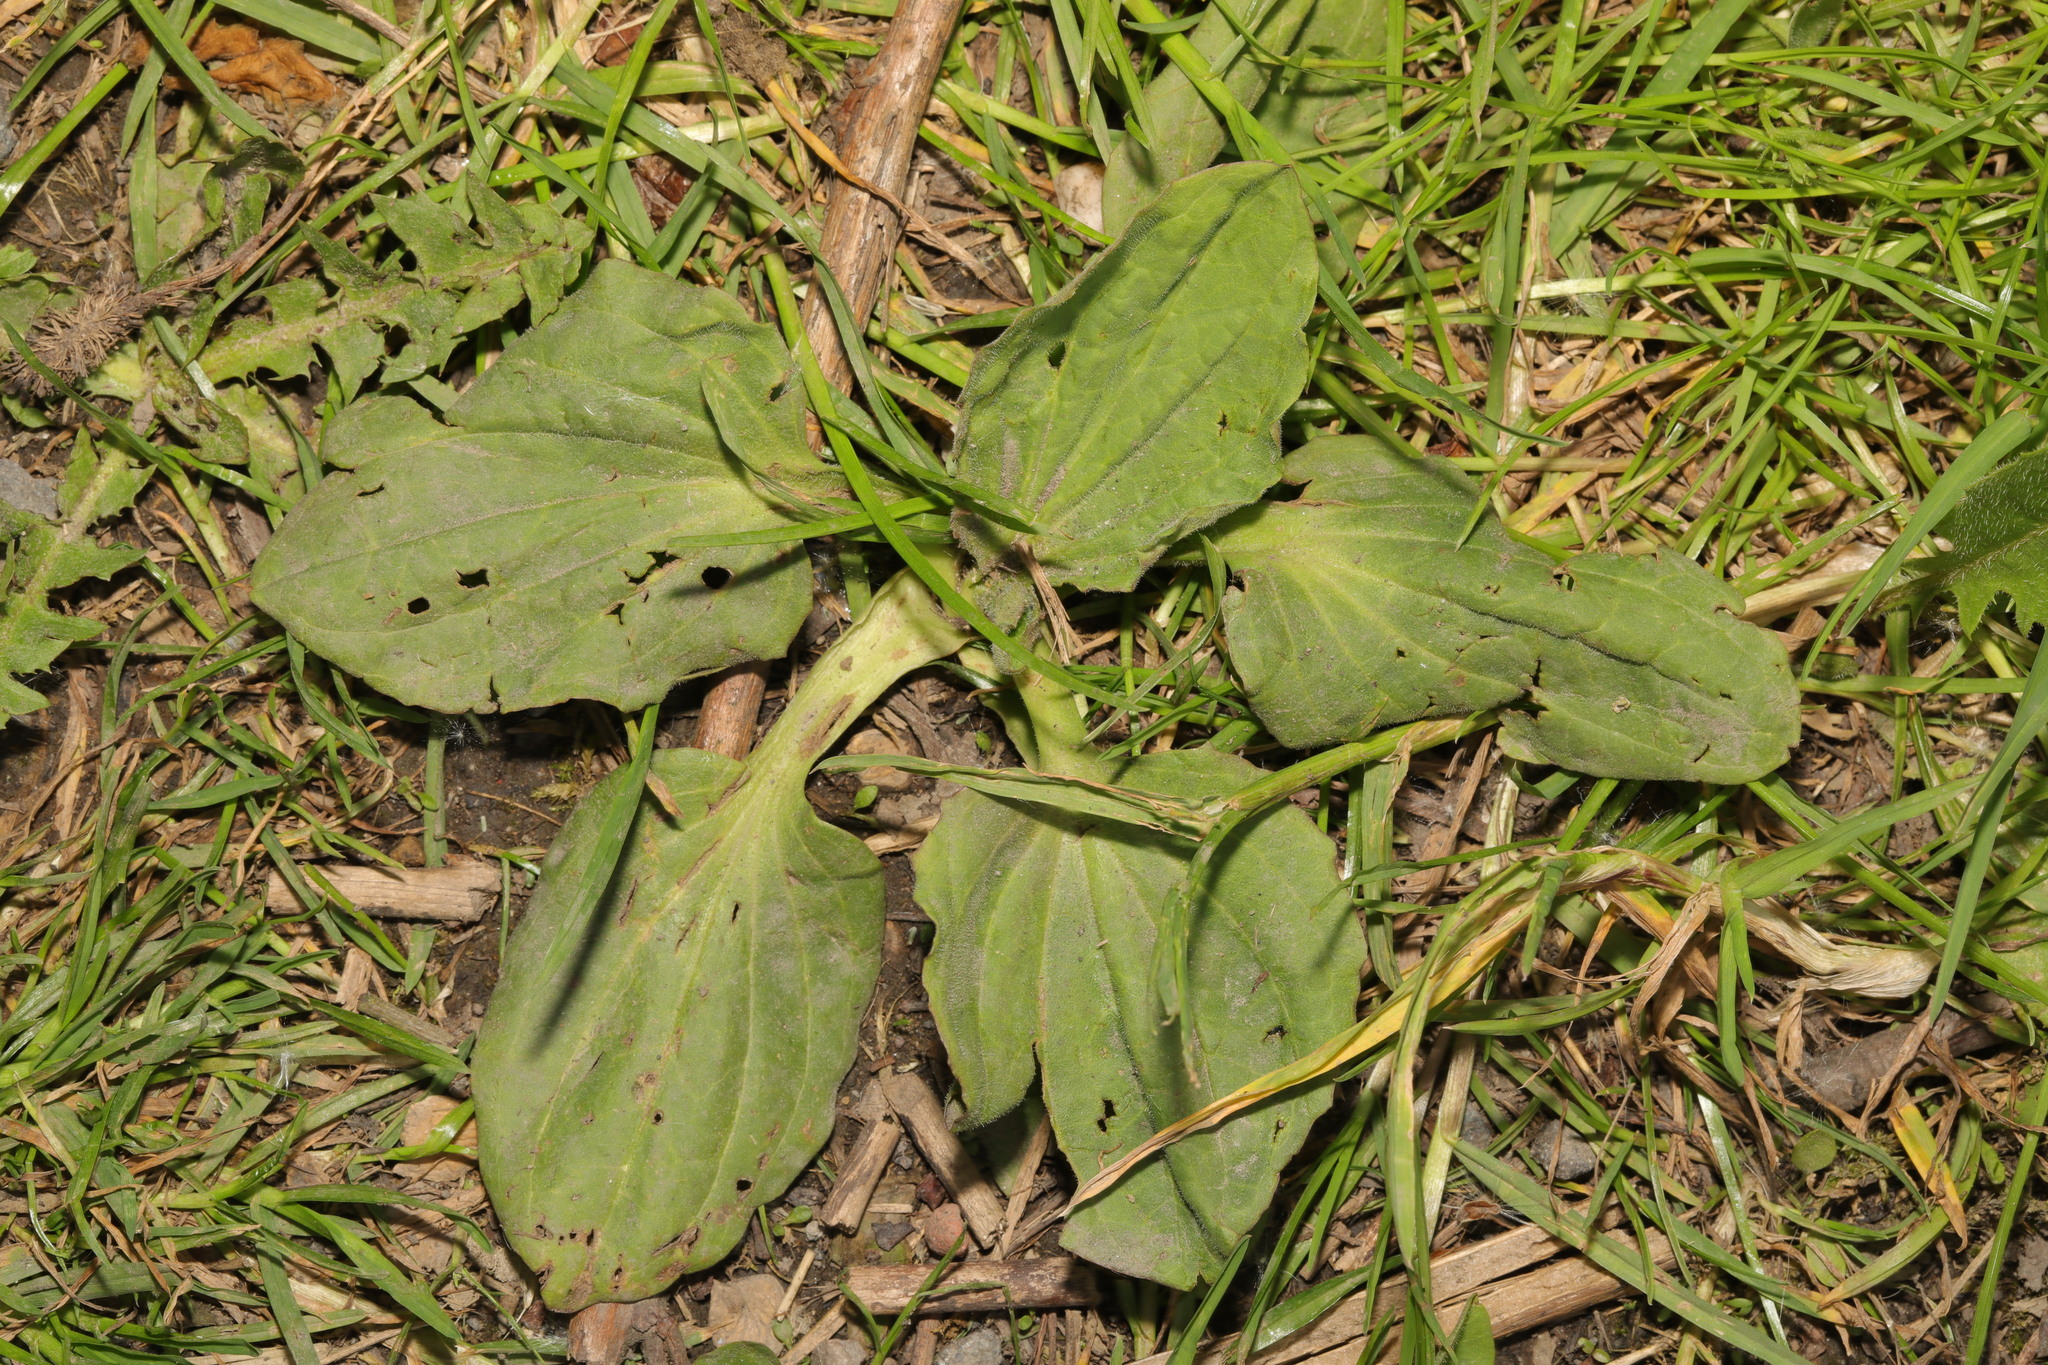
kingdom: Plantae
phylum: Tracheophyta
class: Magnoliopsida
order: Lamiales
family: Plantaginaceae
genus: Plantago
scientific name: Plantago major
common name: Common plantain
